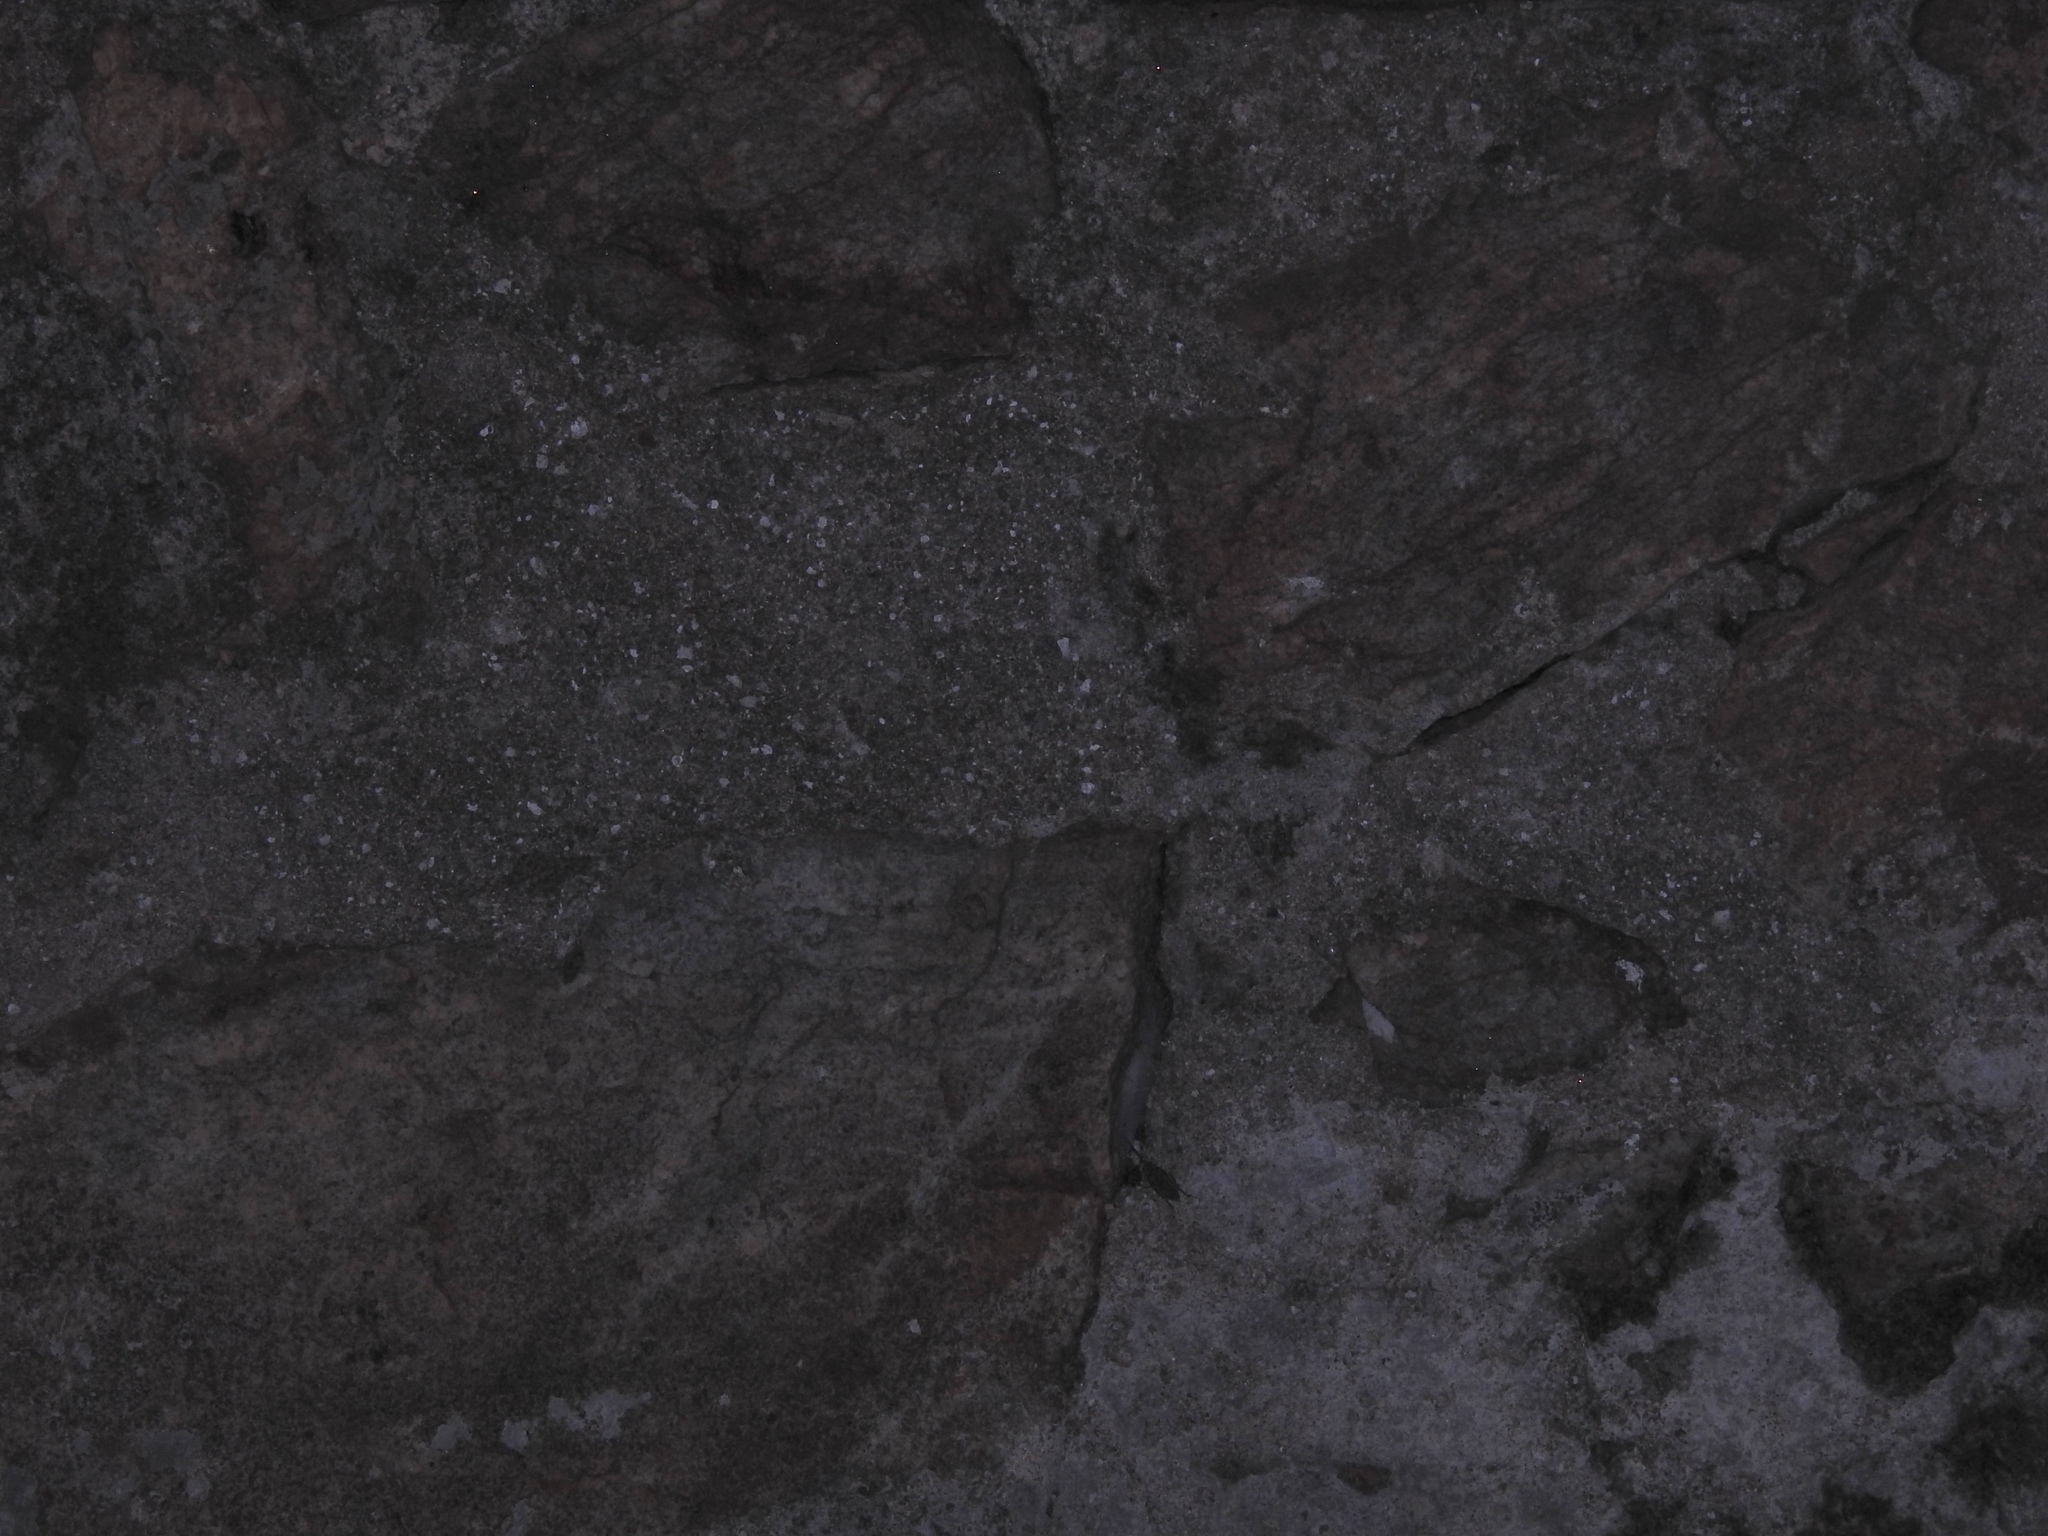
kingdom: Animalia
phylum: Chordata
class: Squamata
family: Colubridae
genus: Lycodon
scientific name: Lycodon fasciolatus
